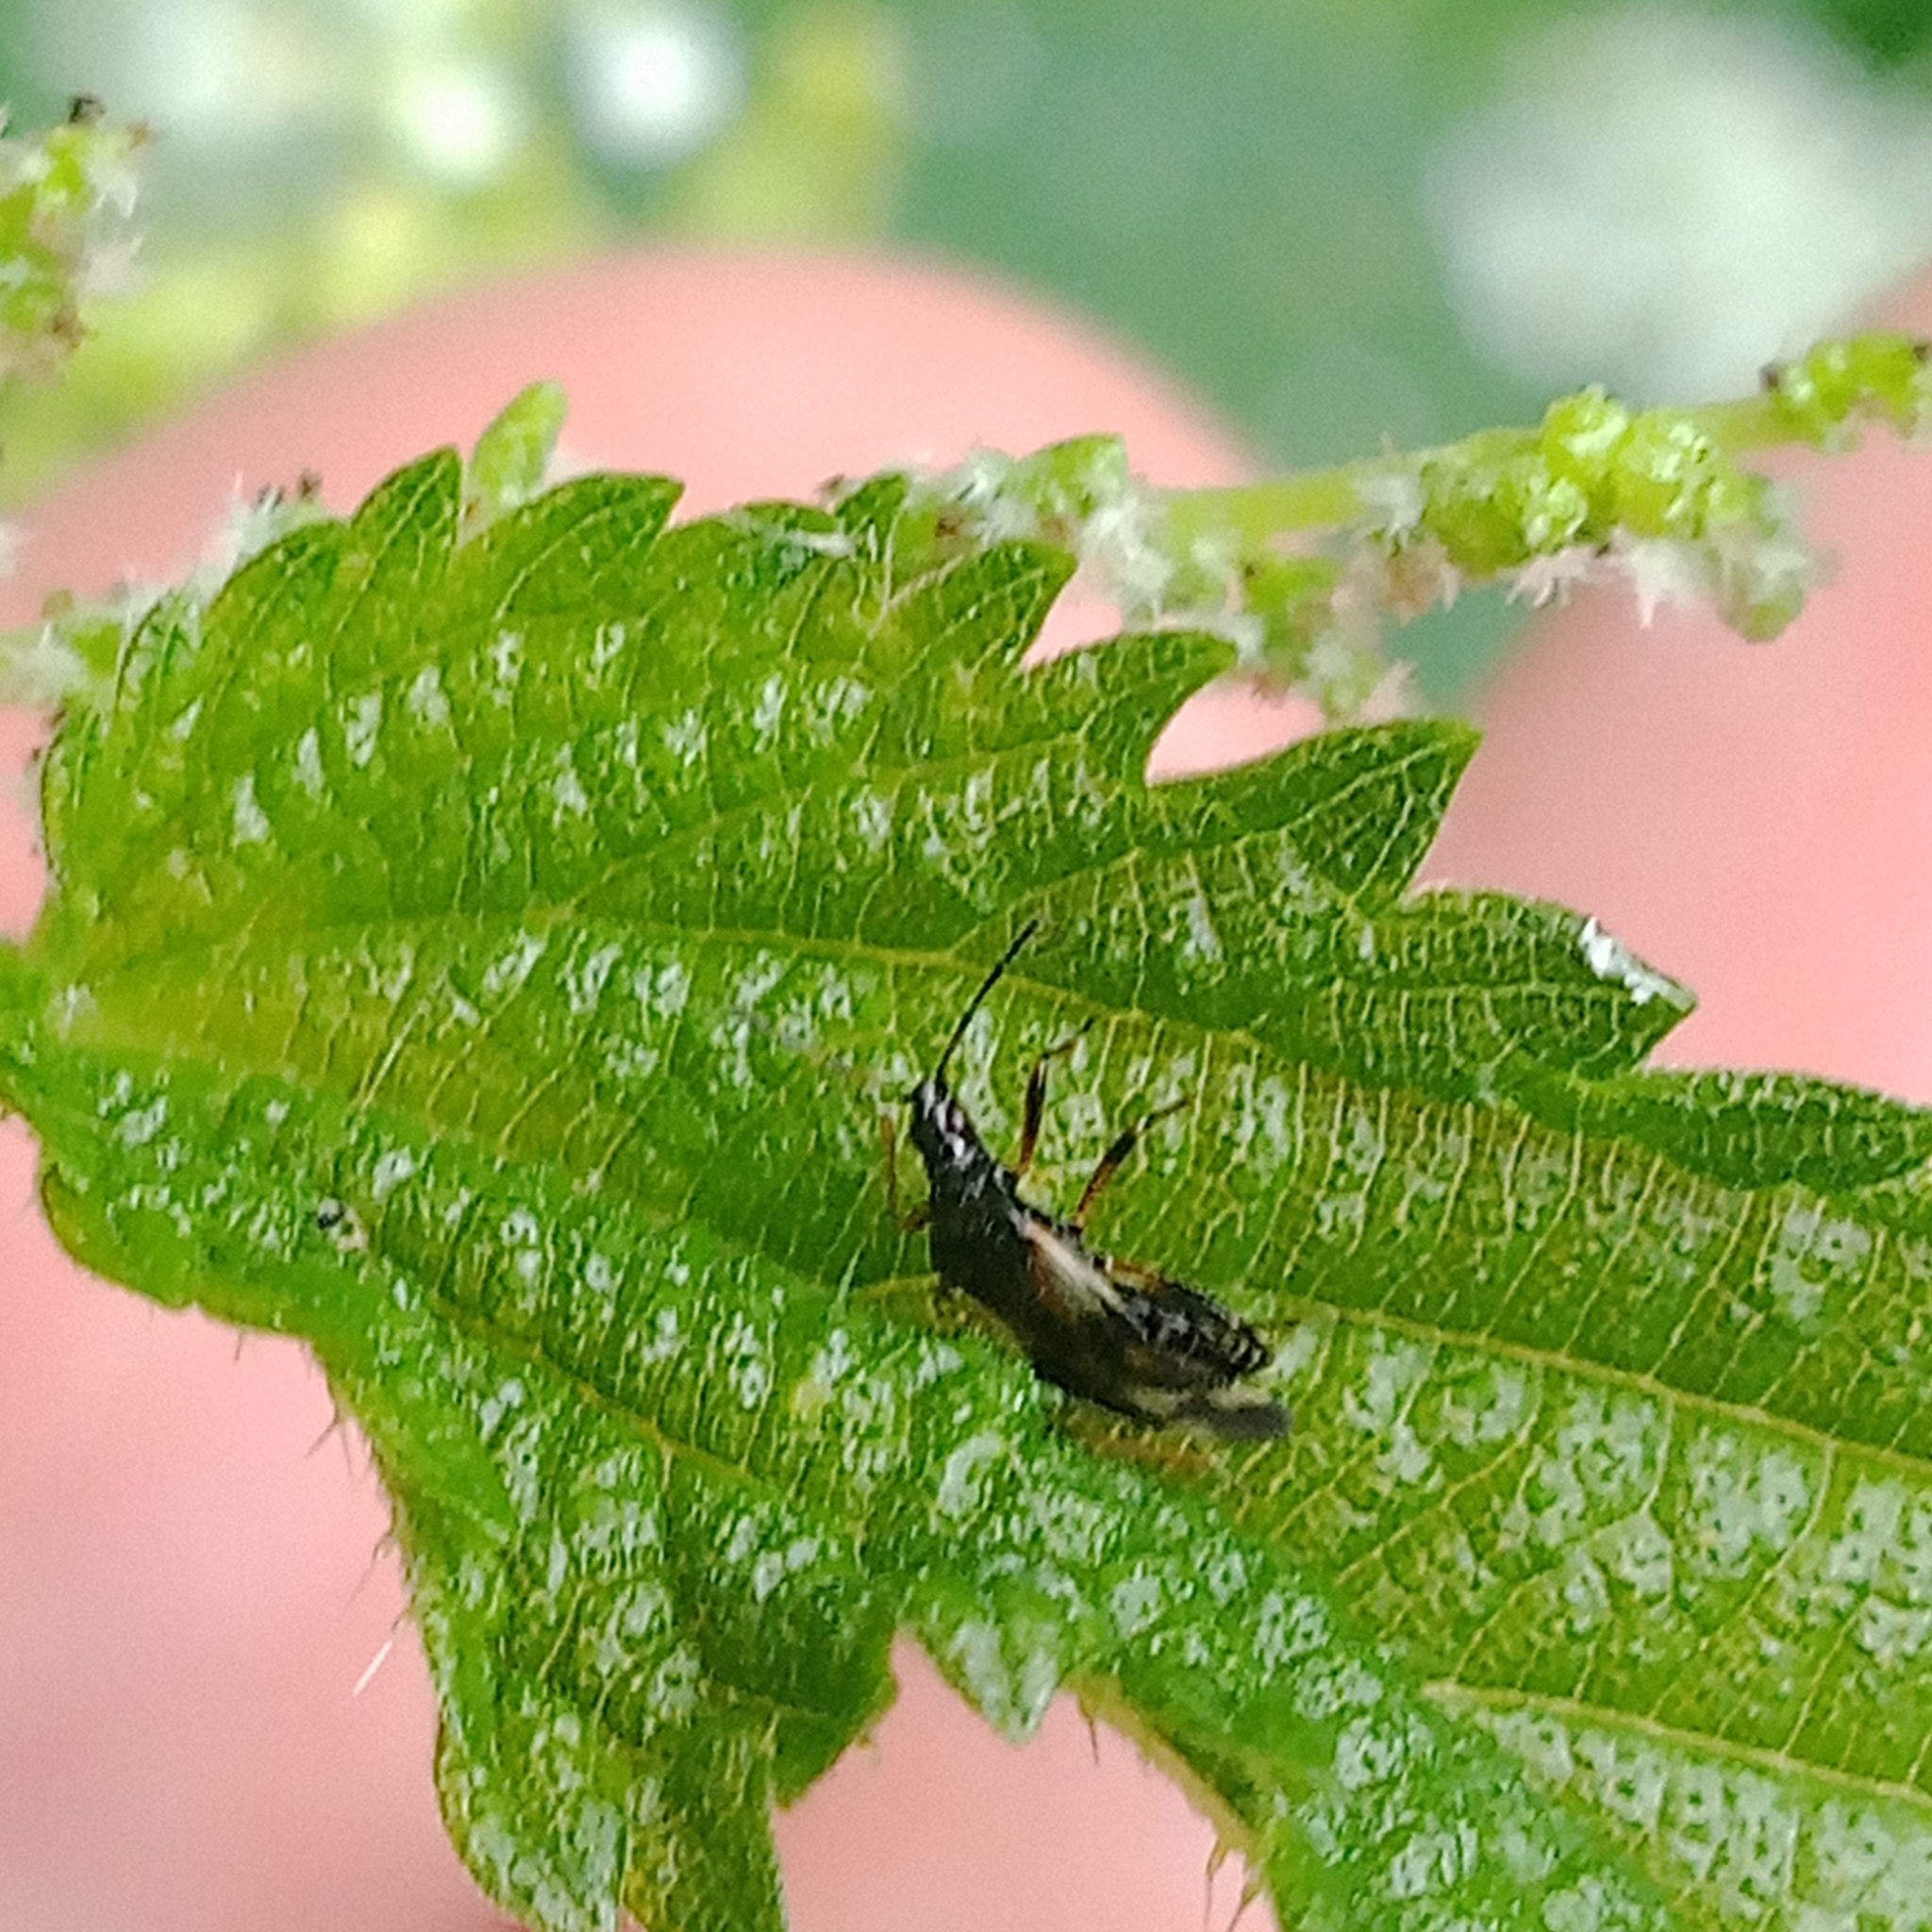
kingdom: Animalia
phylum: Arthropoda
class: Insecta
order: Hemiptera
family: Anthocoridae
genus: Anthocoris
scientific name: Anthocoris nemorum
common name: Minute pirate bug
